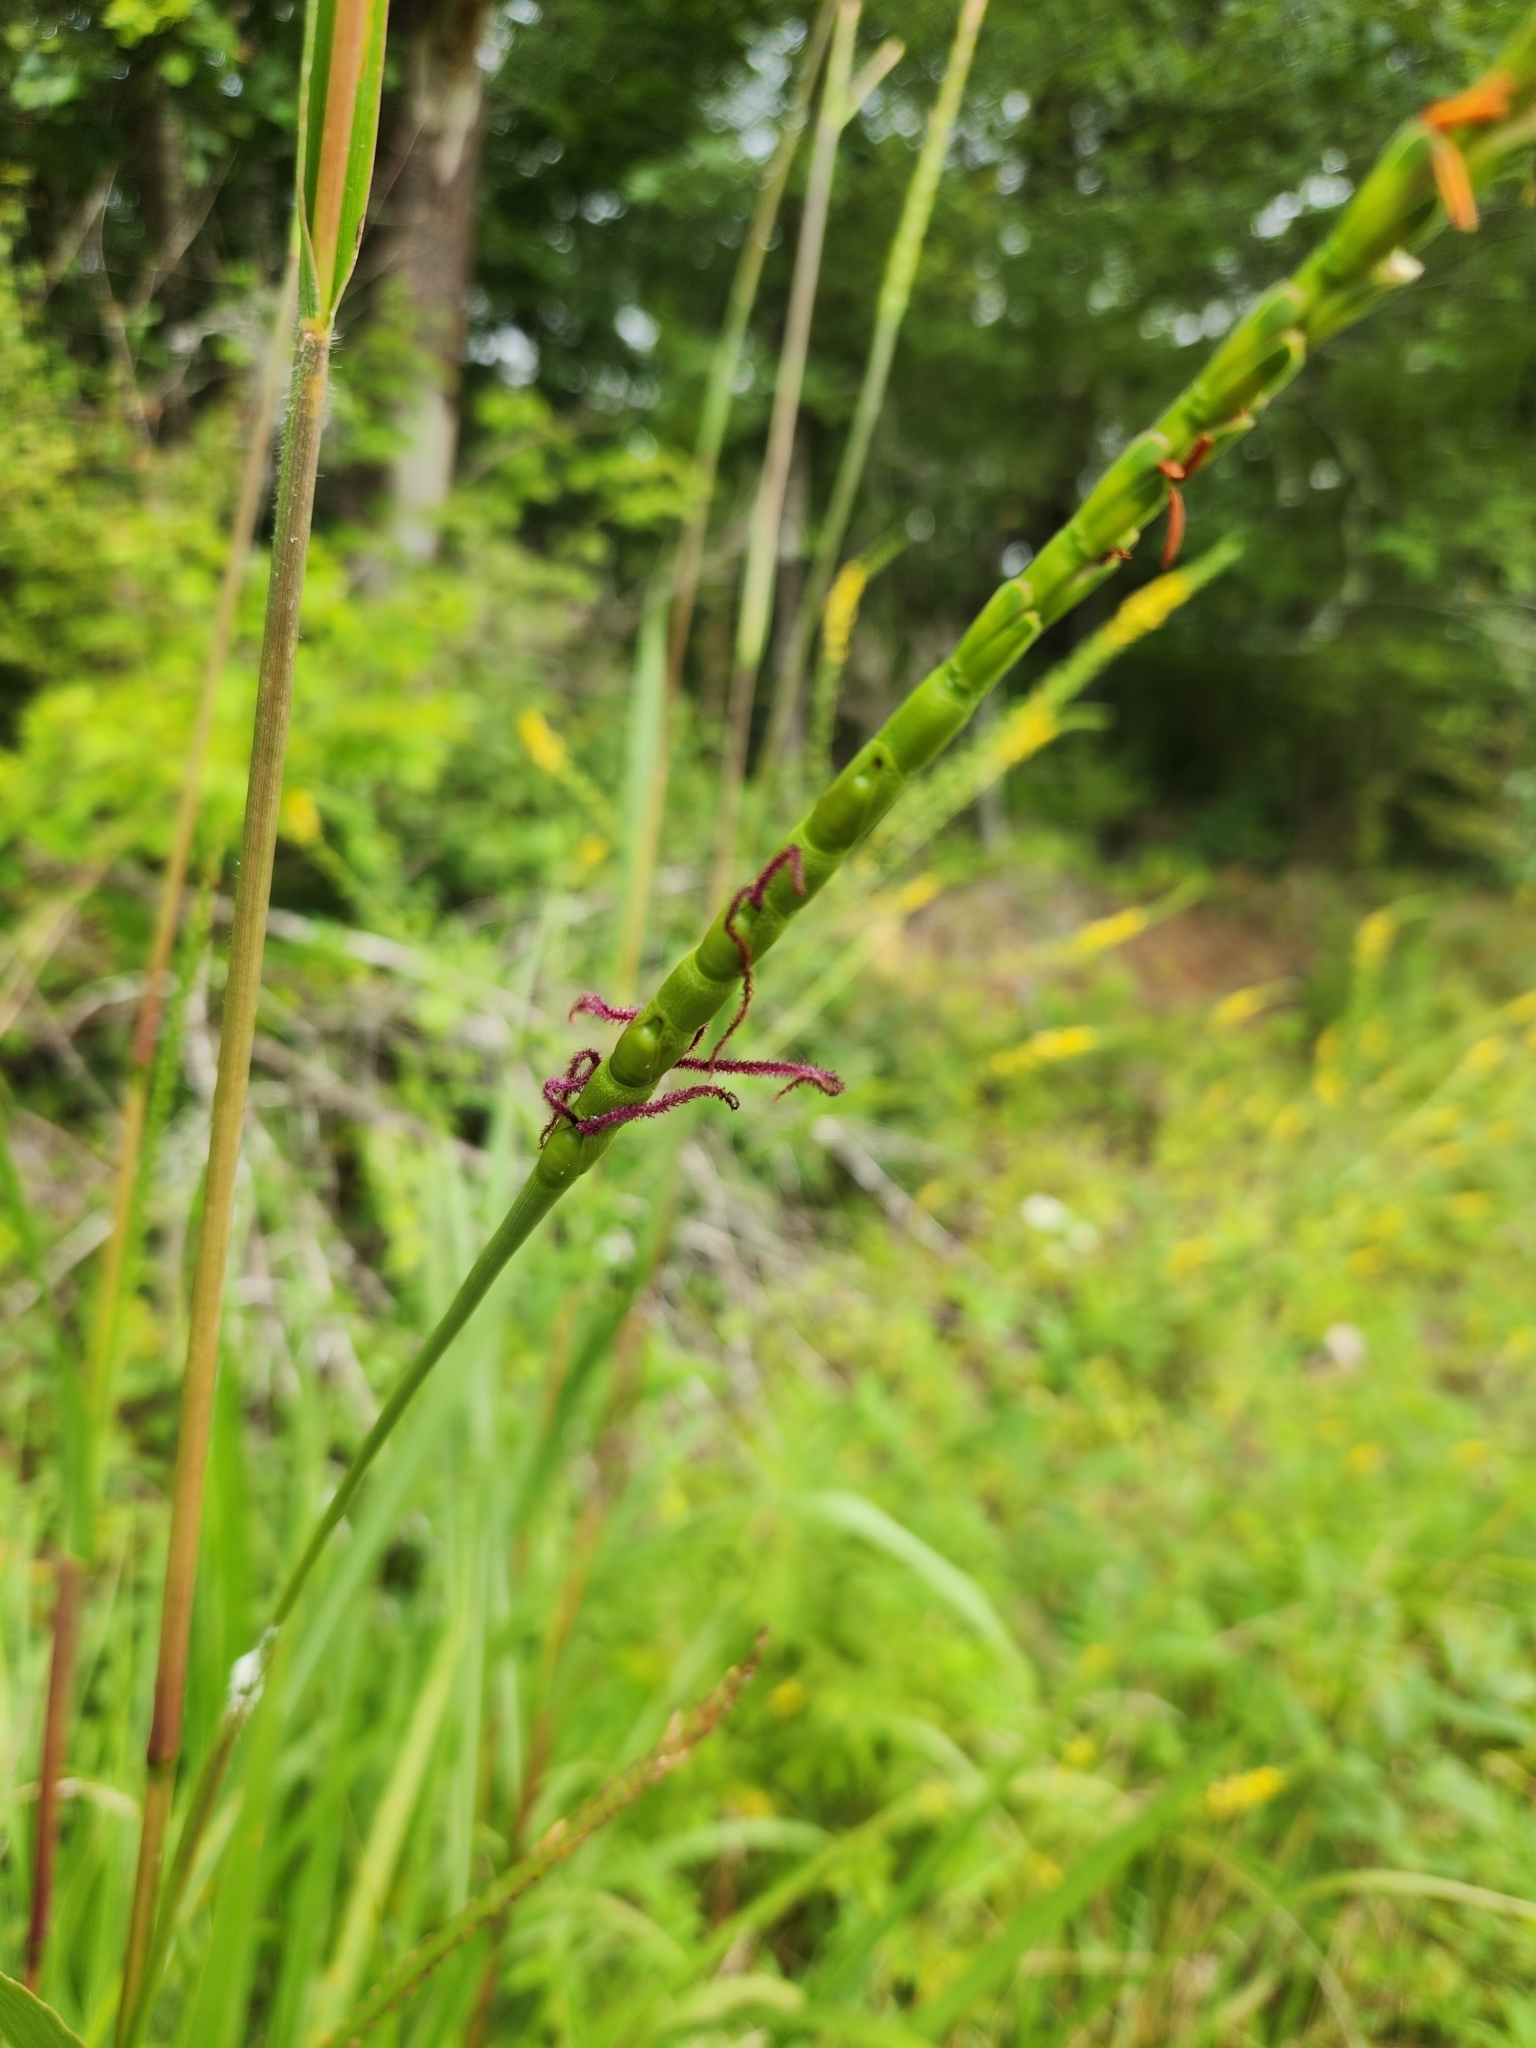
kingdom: Plantae
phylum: Tracheophyta
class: Liliopsida
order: Poales
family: Poaceae
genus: Tripsacum
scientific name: Tripsacum dactyloides
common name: Buffalo-grass
